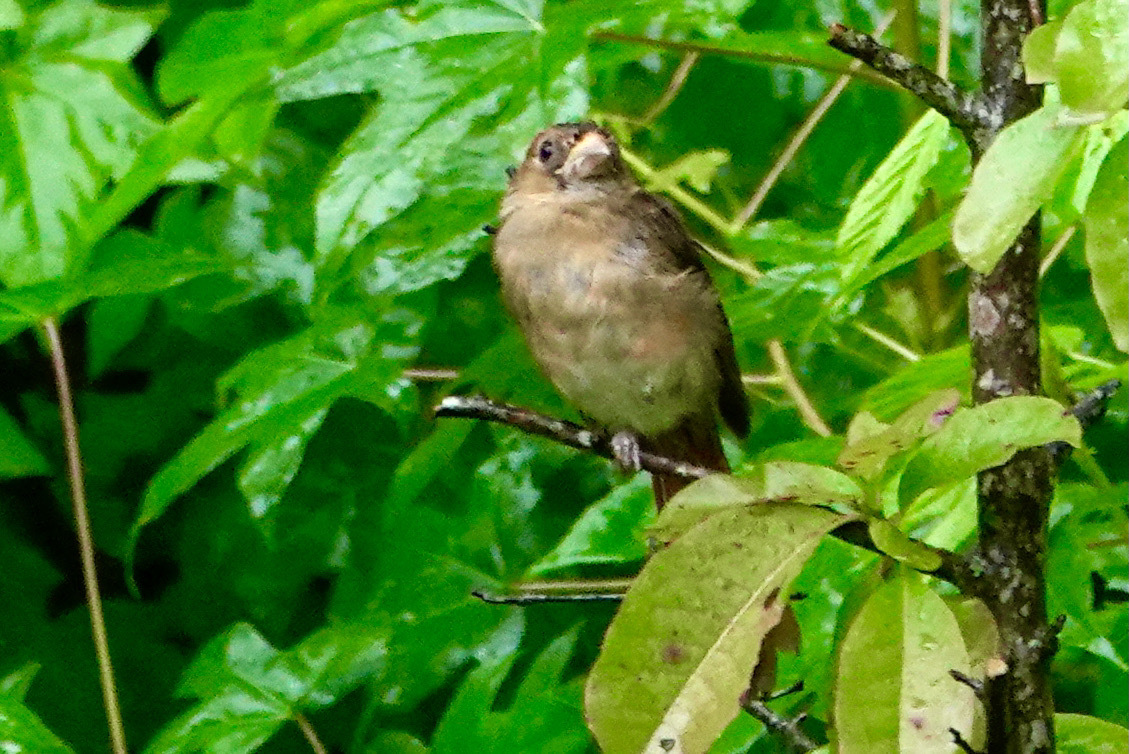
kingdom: Animalia
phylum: Chordata
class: Aves
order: Passeriformes
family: Cardinalidae
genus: Passerina
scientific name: Passerina caerulea
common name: Blue grosbeak
